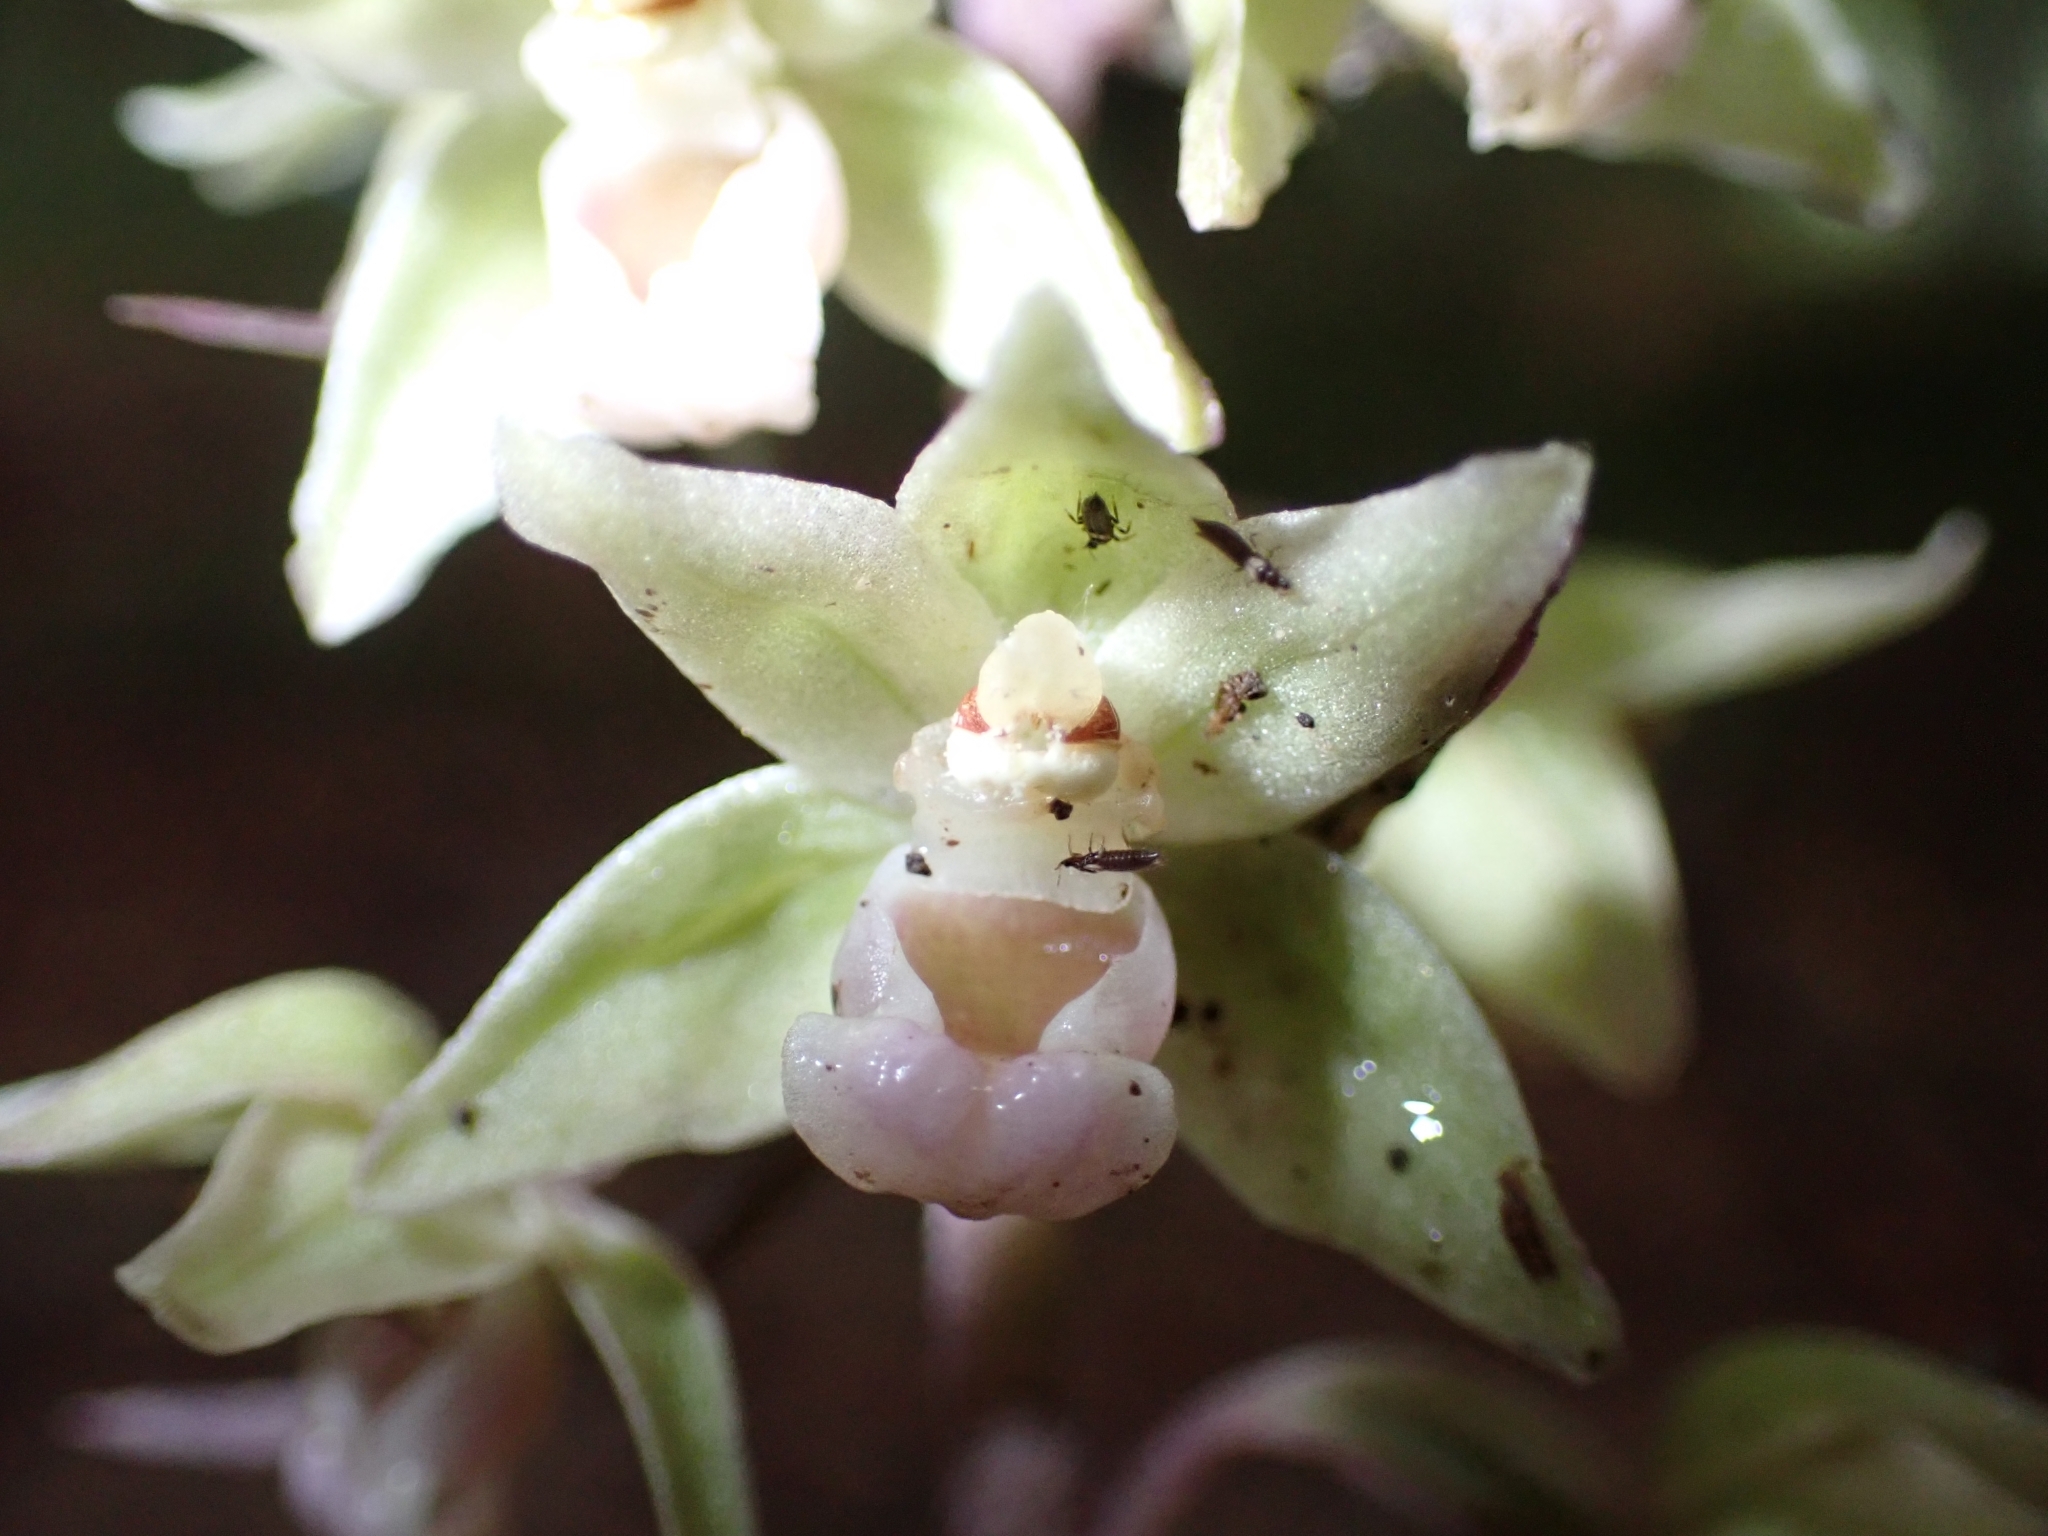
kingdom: Plantae
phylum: Tracheophyta
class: Liliopsida
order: Asparagales
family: Orchidaceae
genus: Epipactis
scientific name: Epipactis purpurata
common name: Violet helleborine
